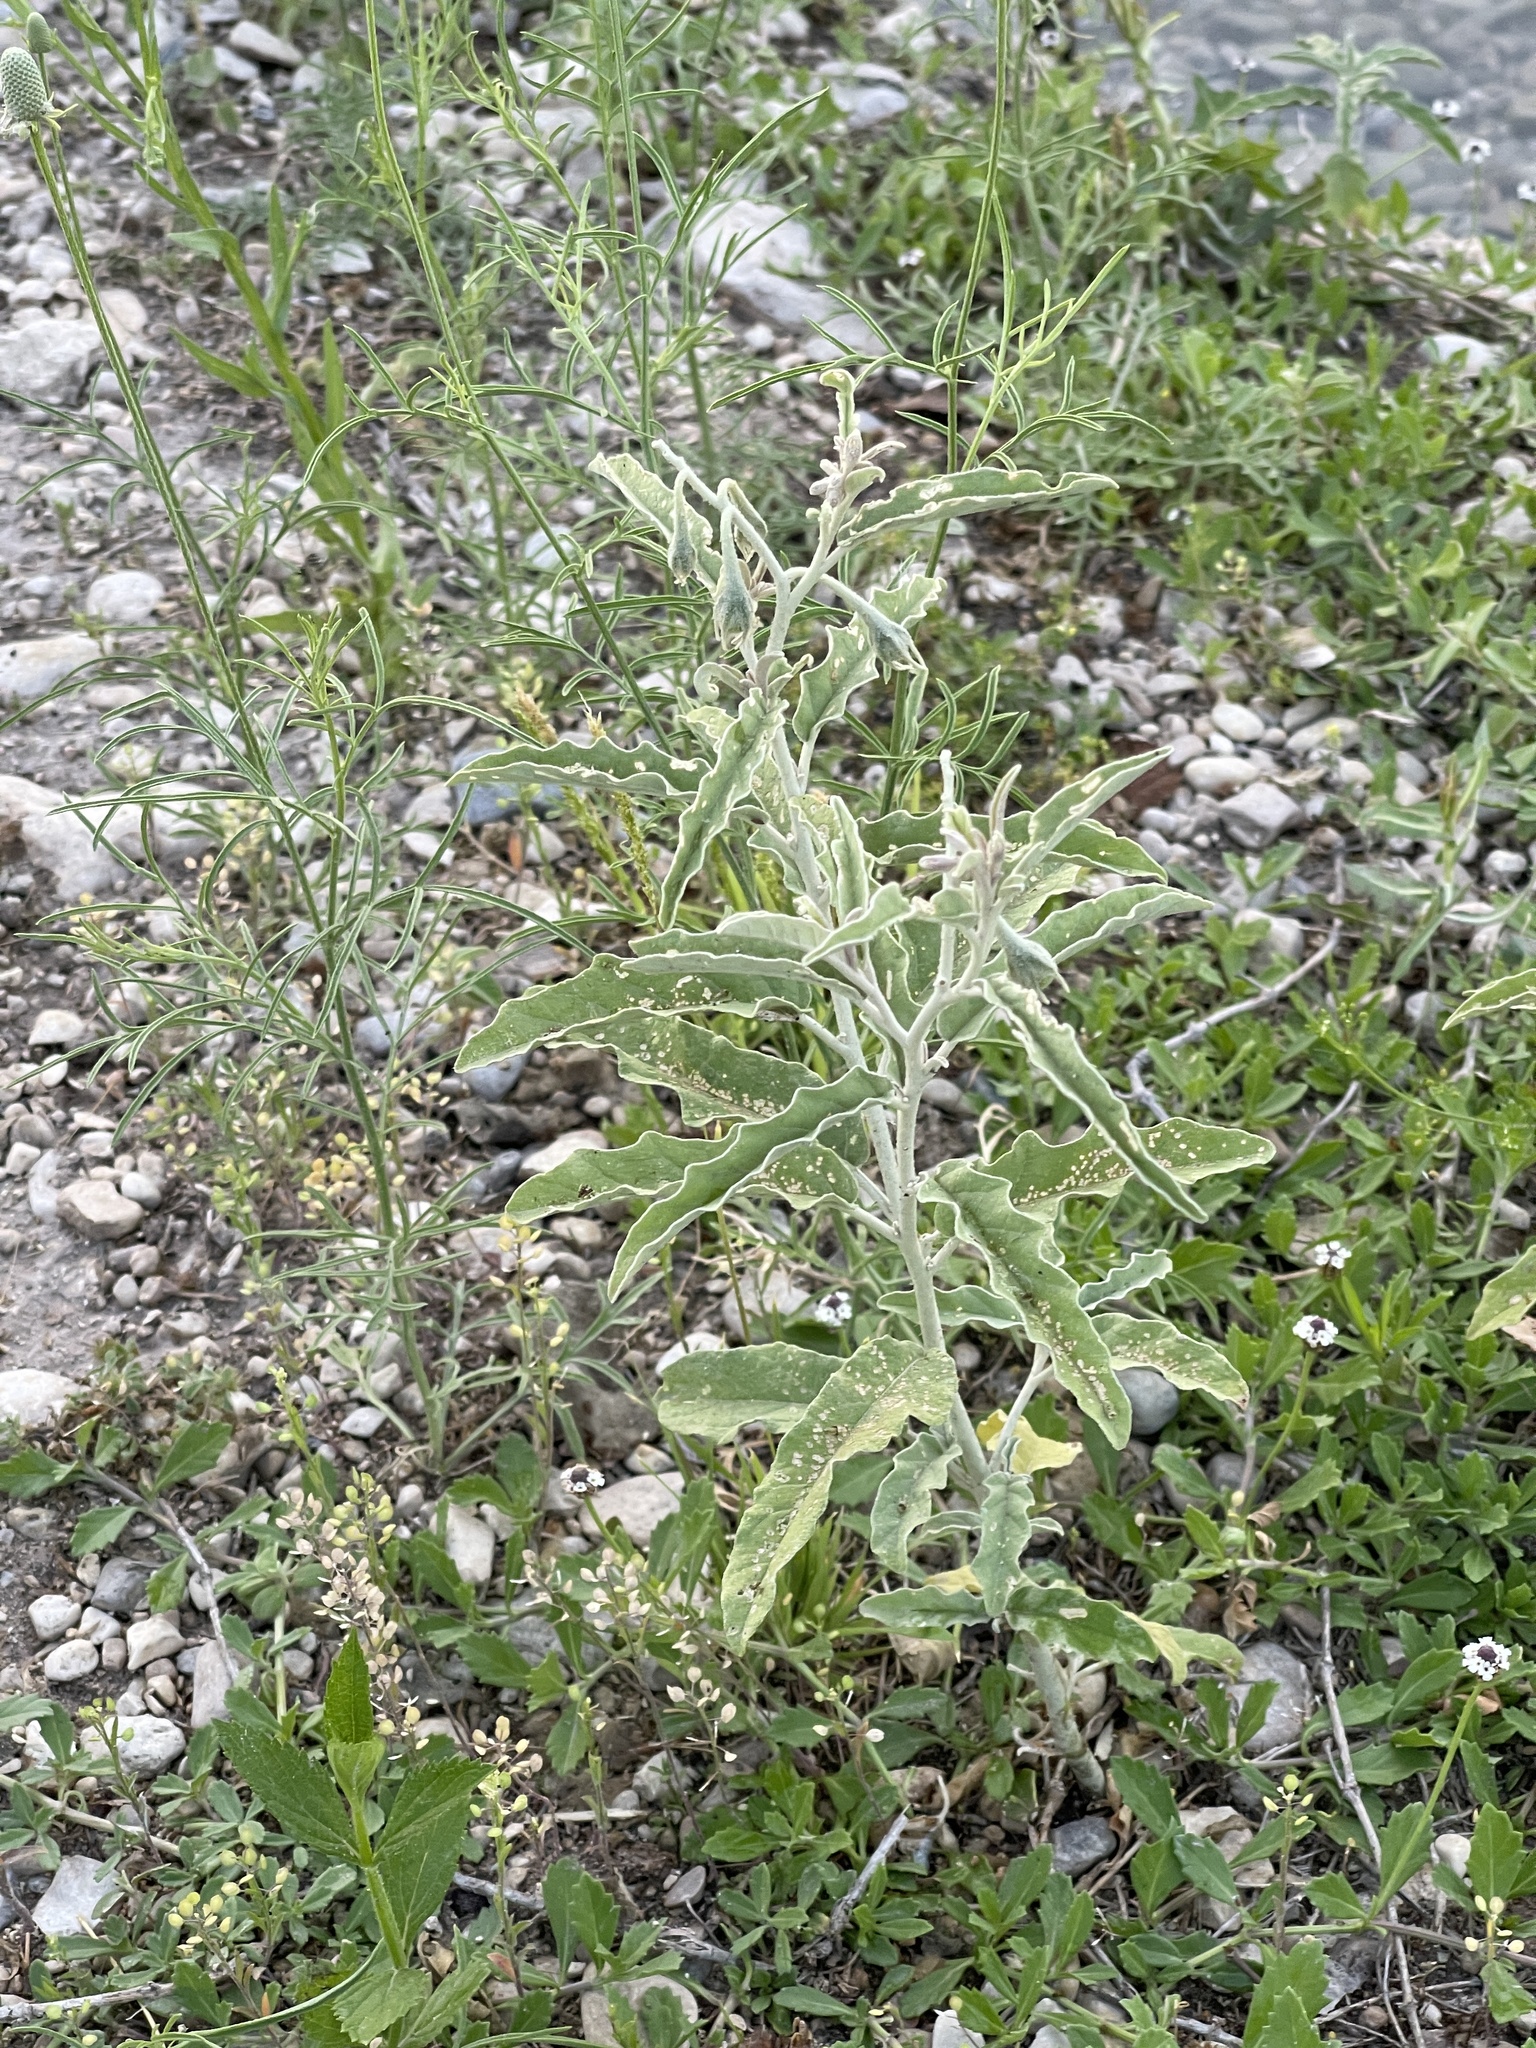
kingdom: Plantae
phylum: Tracheophyta
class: Magnoliopsida
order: Solanales
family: Solanaceae
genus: Solanum
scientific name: Solanum elaeagnifolium
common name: Silverleaf nightshade
